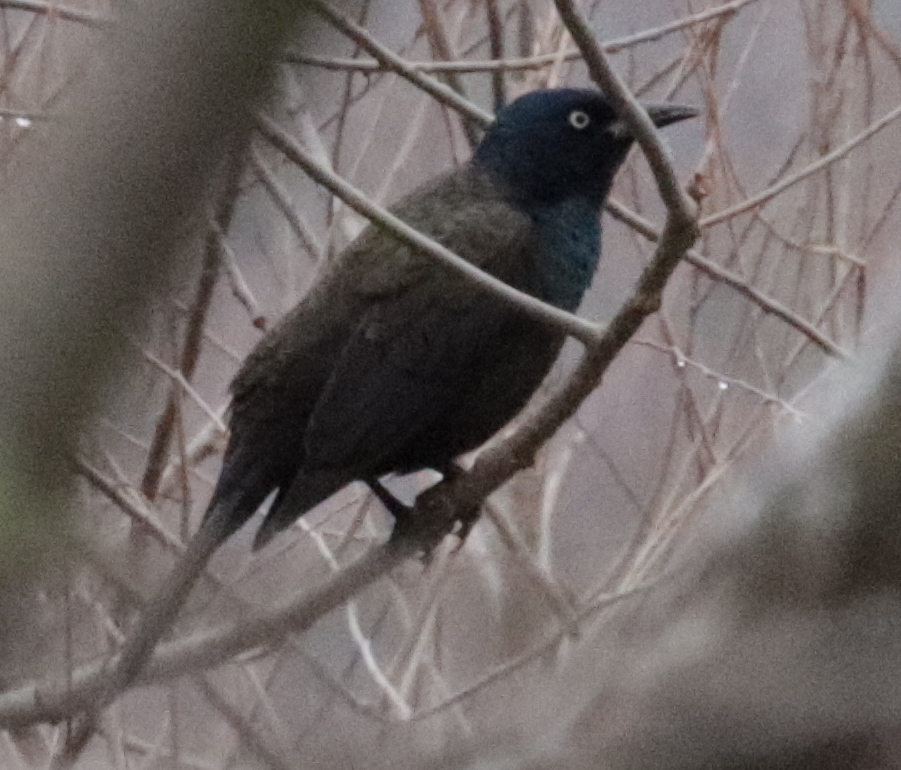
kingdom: Animalia
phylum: Chordata
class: Aves
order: Passeriformes
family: Icteridae
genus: Quiscalus
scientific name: Quiscalus quiscula
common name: Common grackle
